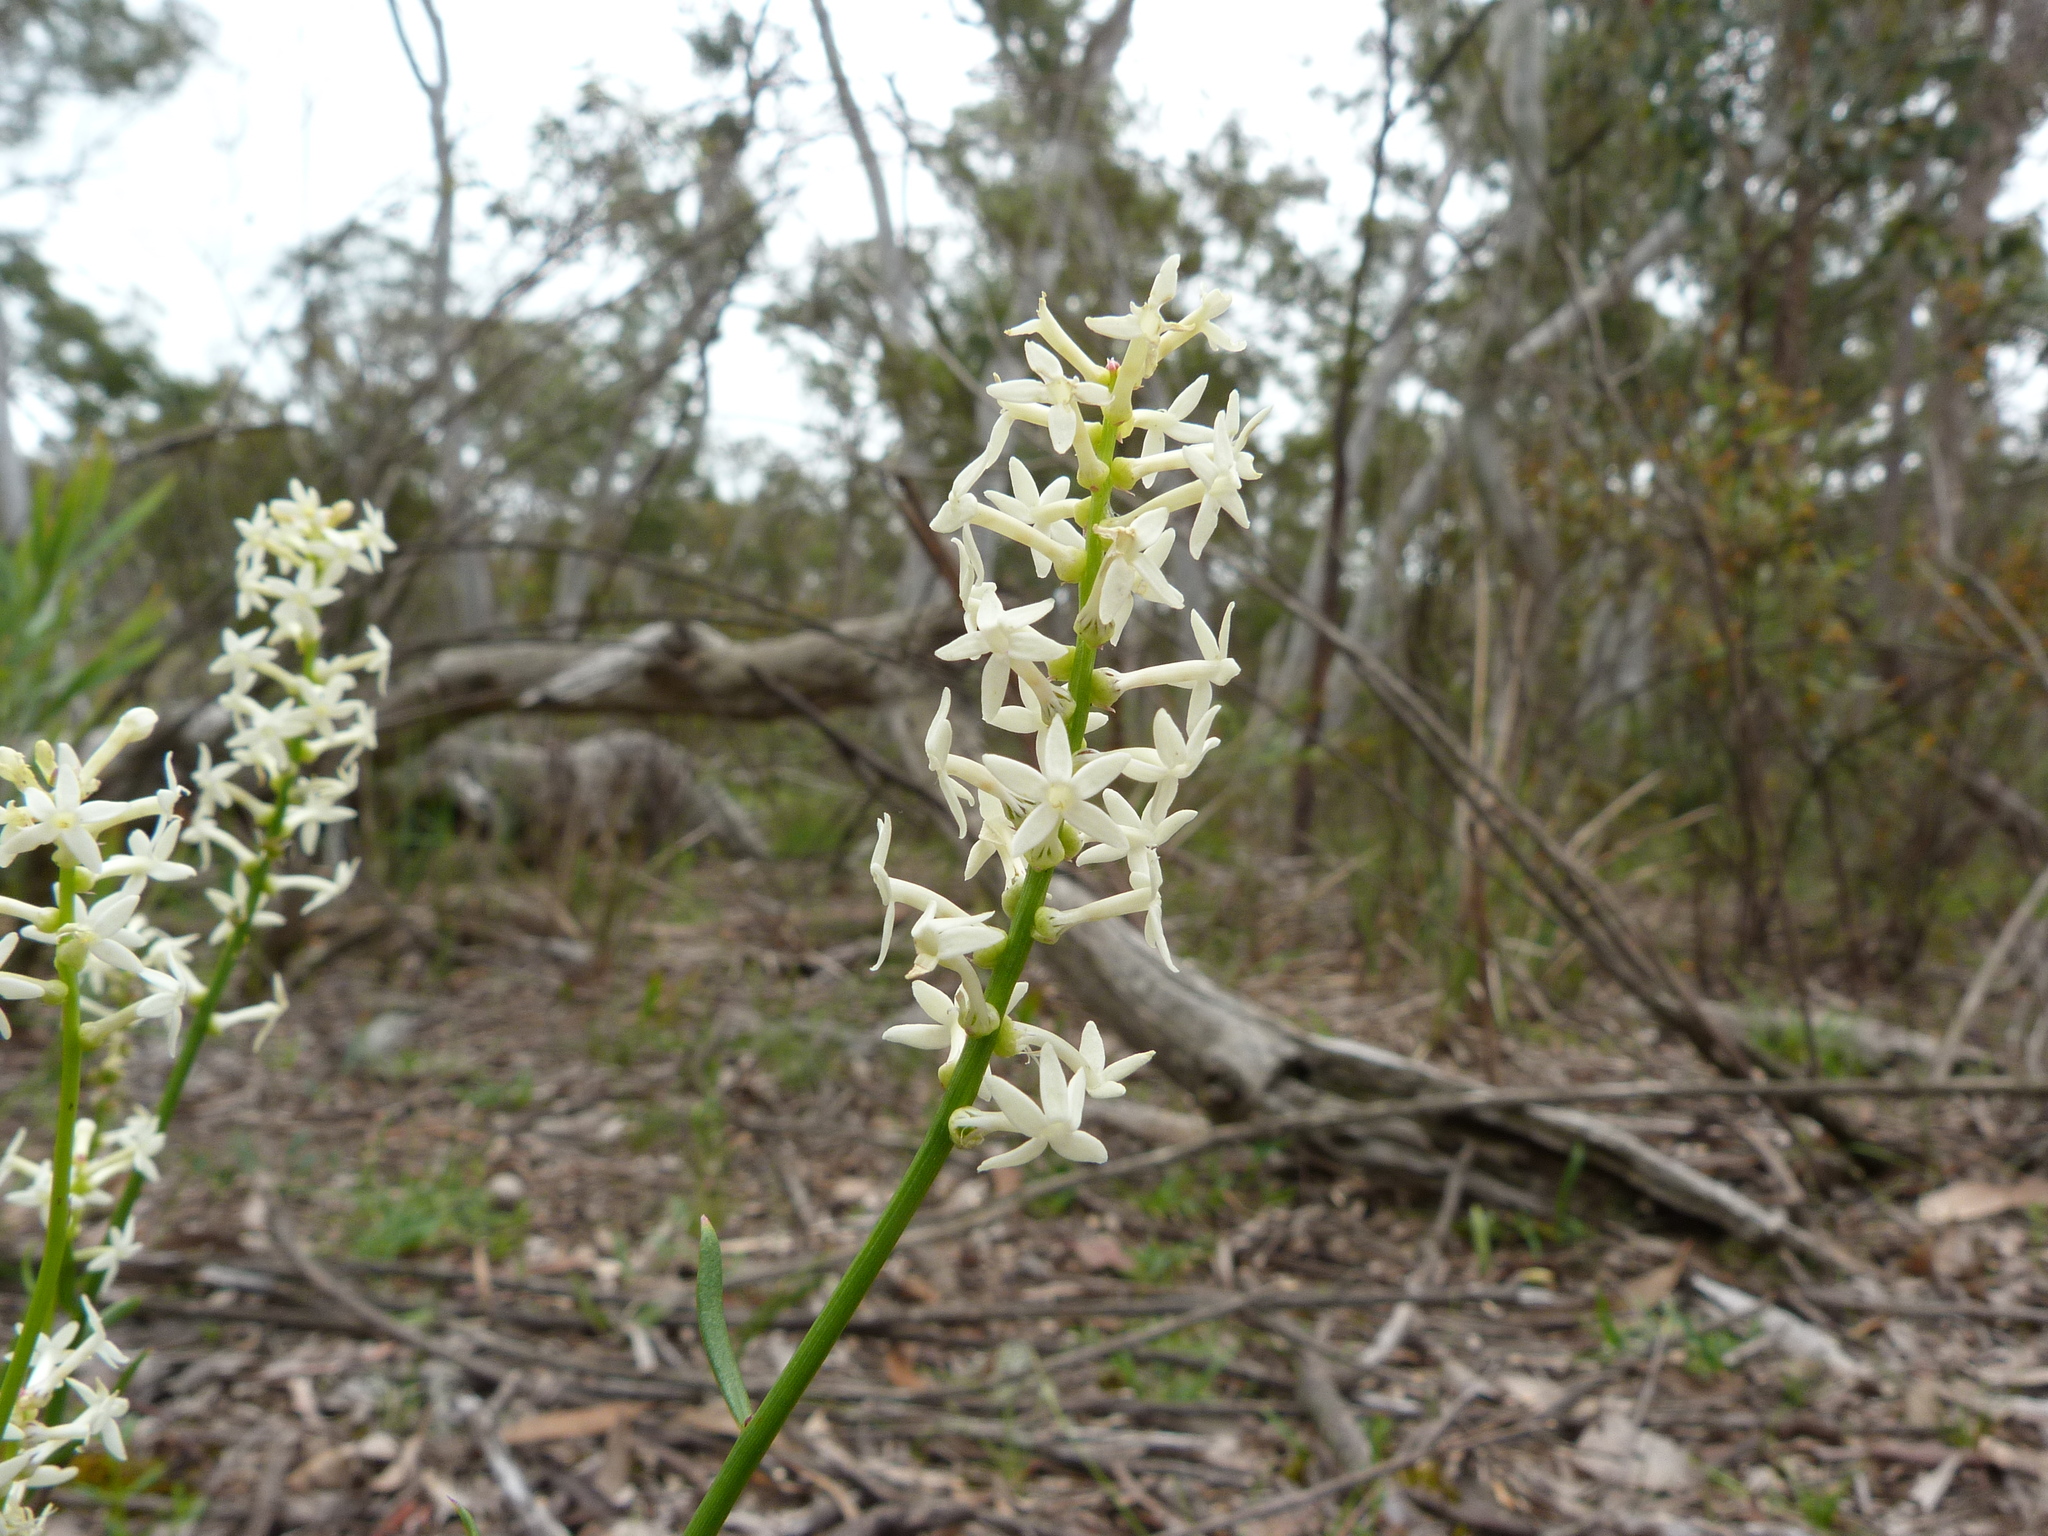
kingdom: Plantae
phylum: Tracheophyta
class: Magnoliopsida
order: Celastrales
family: Celastraceae
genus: Stackhousia
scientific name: Stackhousia monogyna
